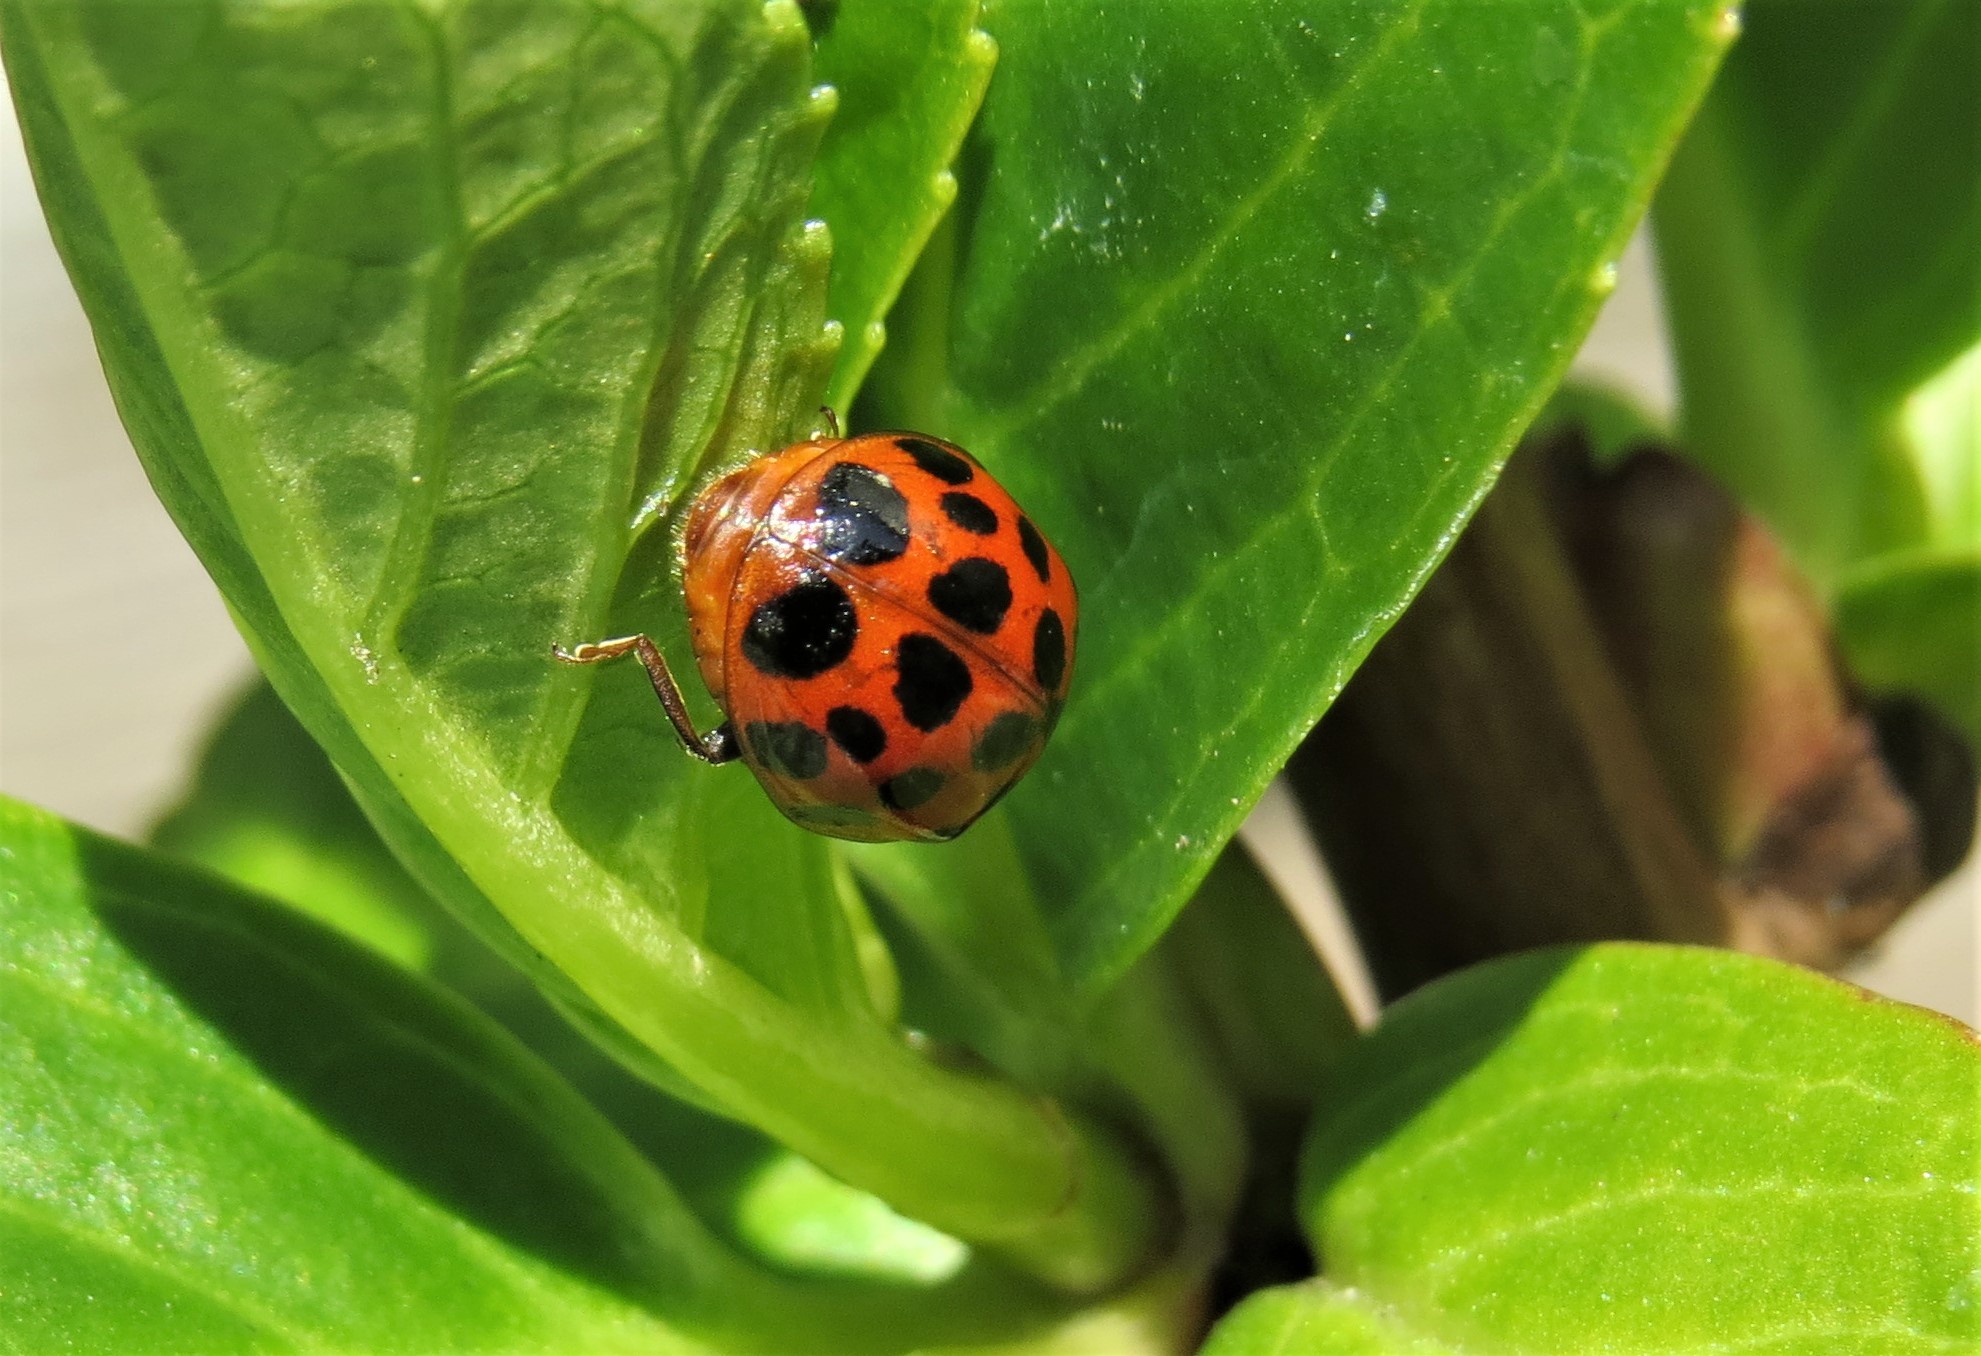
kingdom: Animalia
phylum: Arthropoda
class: Insecta
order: Coleoptera
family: Coccinellidae
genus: Harmonia
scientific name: Harmonia axyridis
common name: Harlequin ladybird
